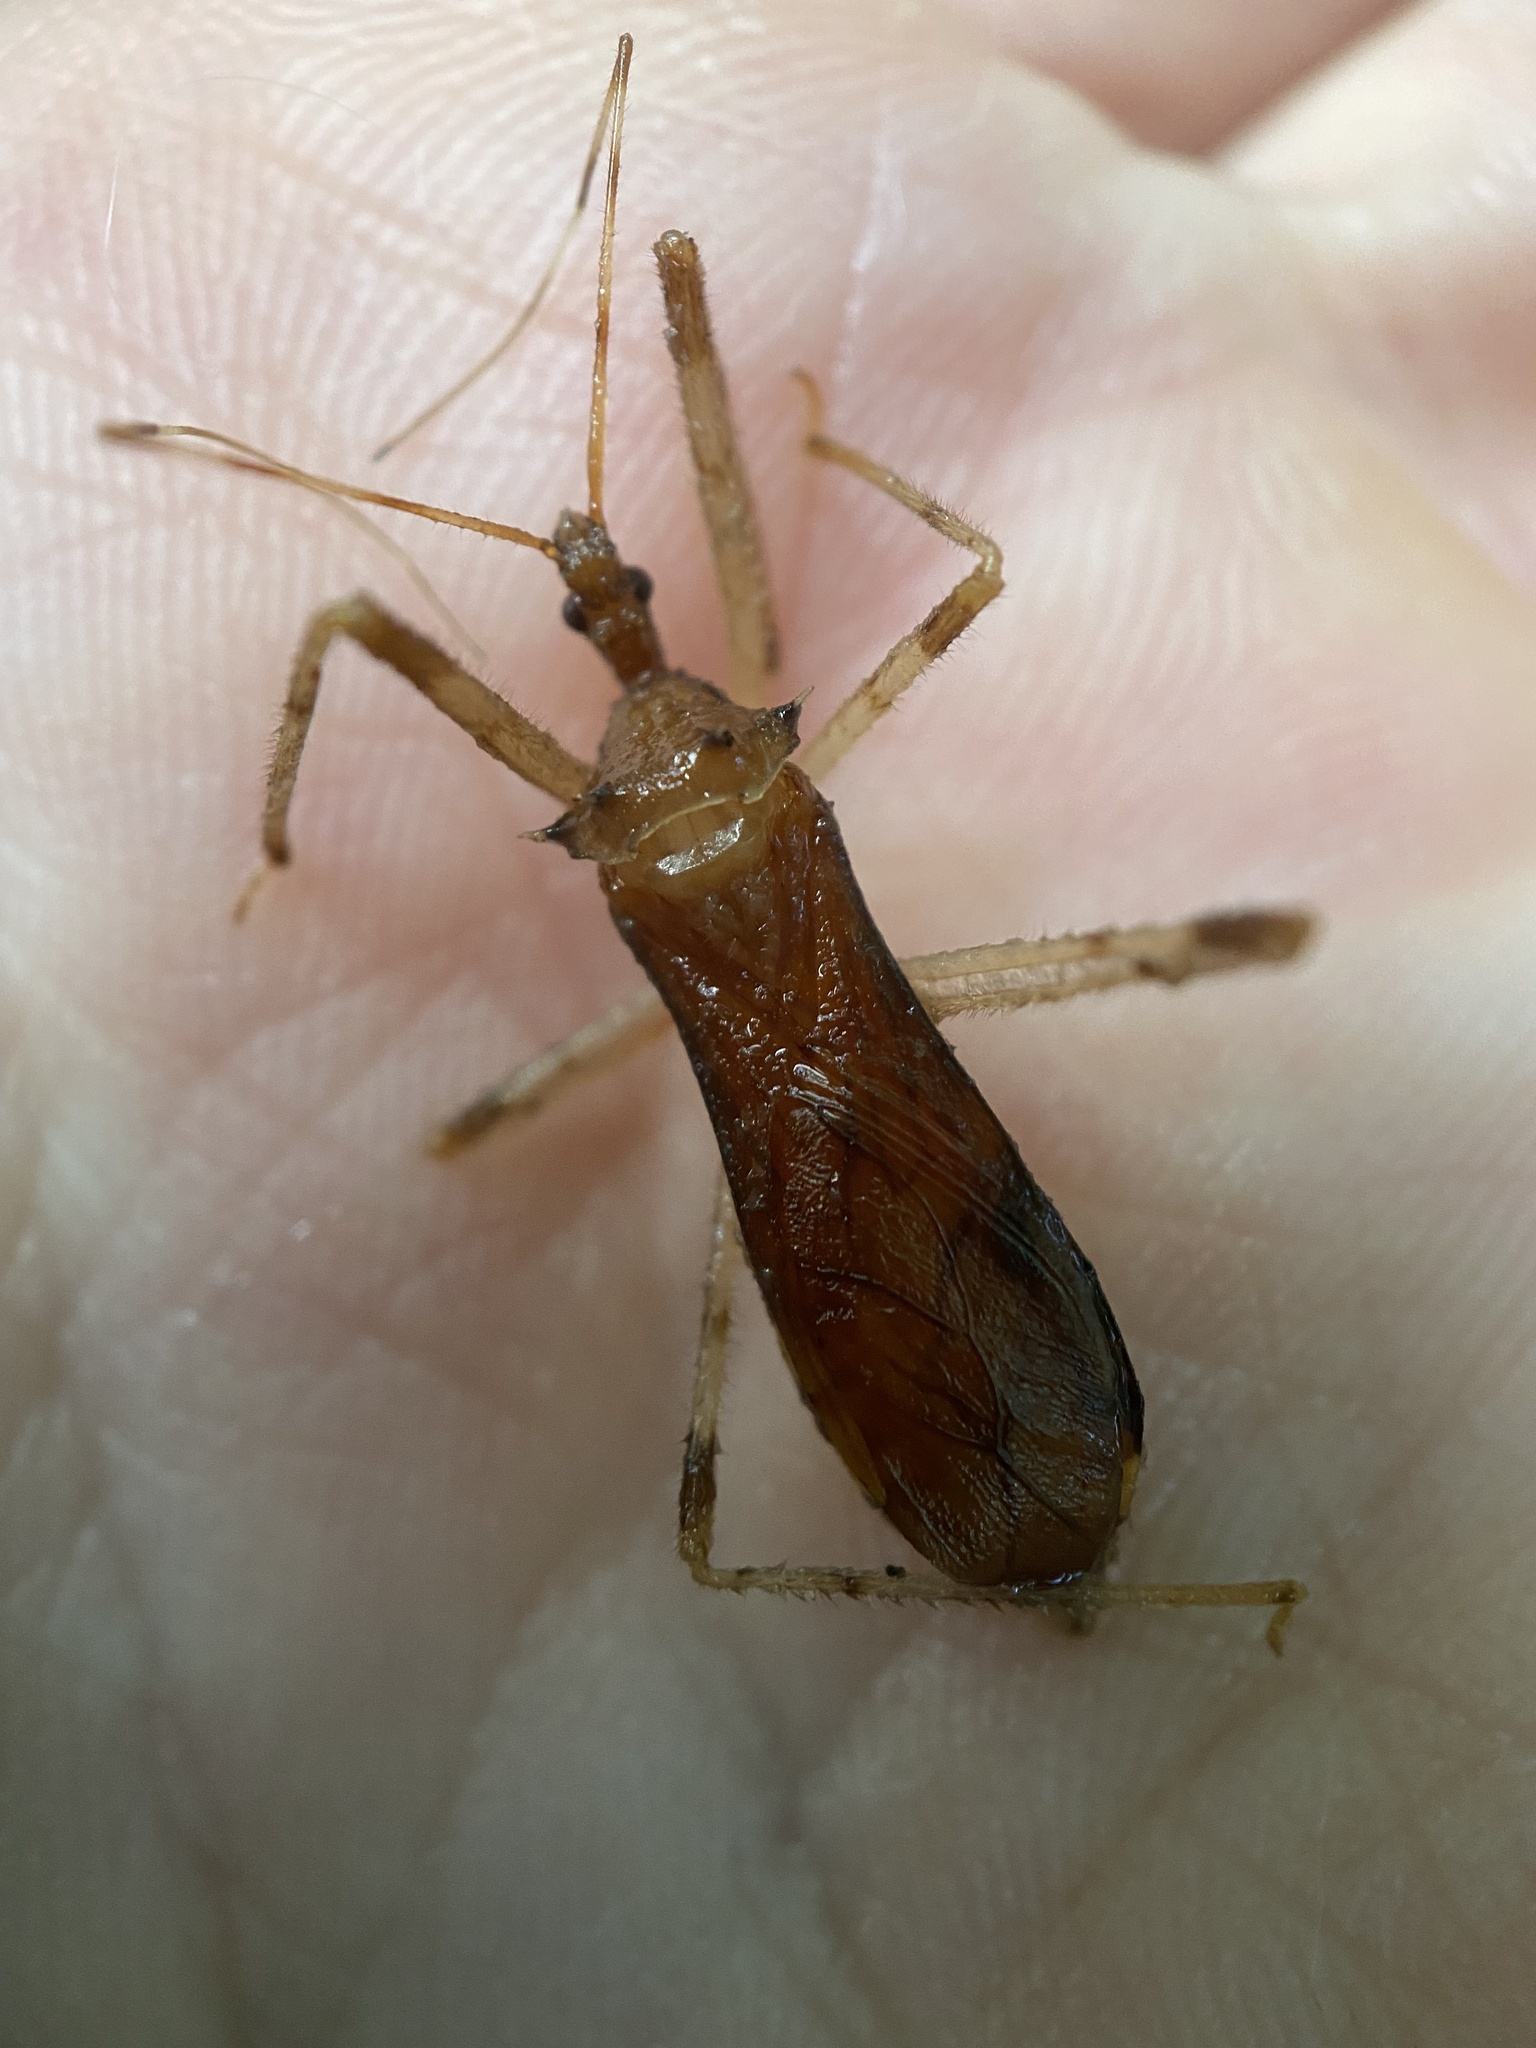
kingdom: Animalia
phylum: Arthropoda
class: Insecta
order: Hemiptera
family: Reduviidae
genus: Rocconota
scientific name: Rocconota annulicornis
